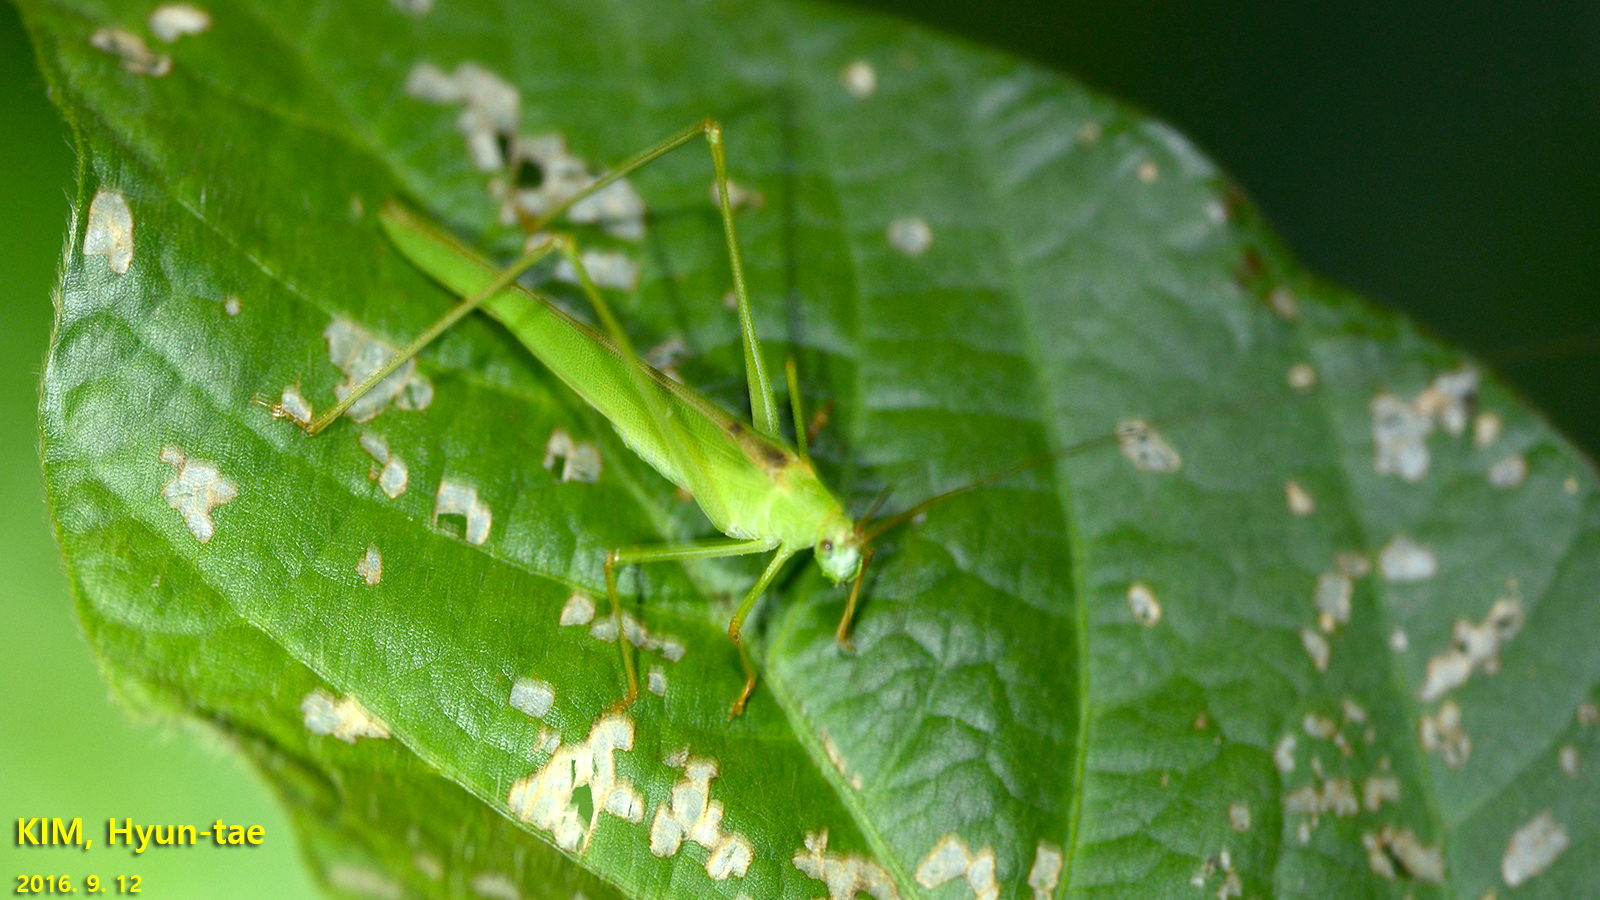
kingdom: Animalia
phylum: Arthropoda
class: Insecta
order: Orthoptera
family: Tettigoniidae
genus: Phaneroptera
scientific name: Phaneroptera falcata
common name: Sickle-bearing bush-cricket
